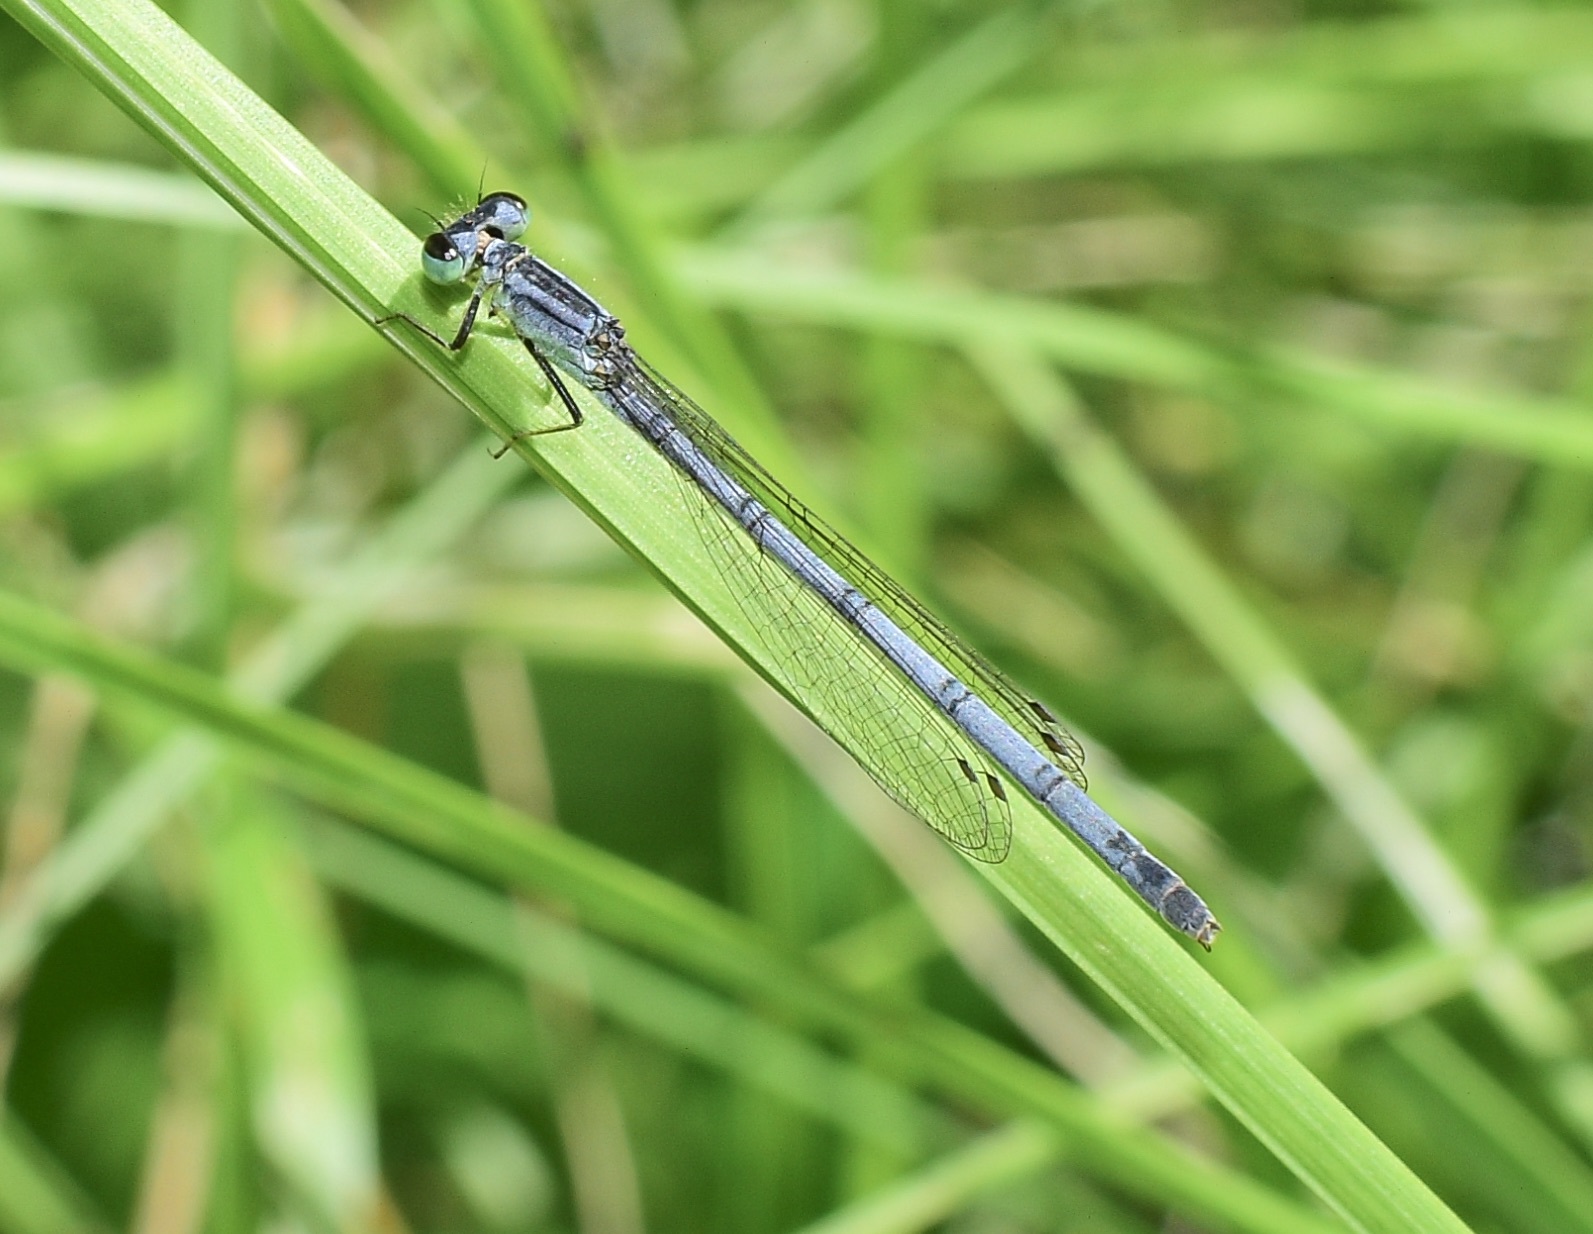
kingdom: Animalia
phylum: Arthropoda
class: Insecta
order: Odonata
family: Coenagrionidae
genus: Ischnura
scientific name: Ischnura verticalis
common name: Eastern forktail
